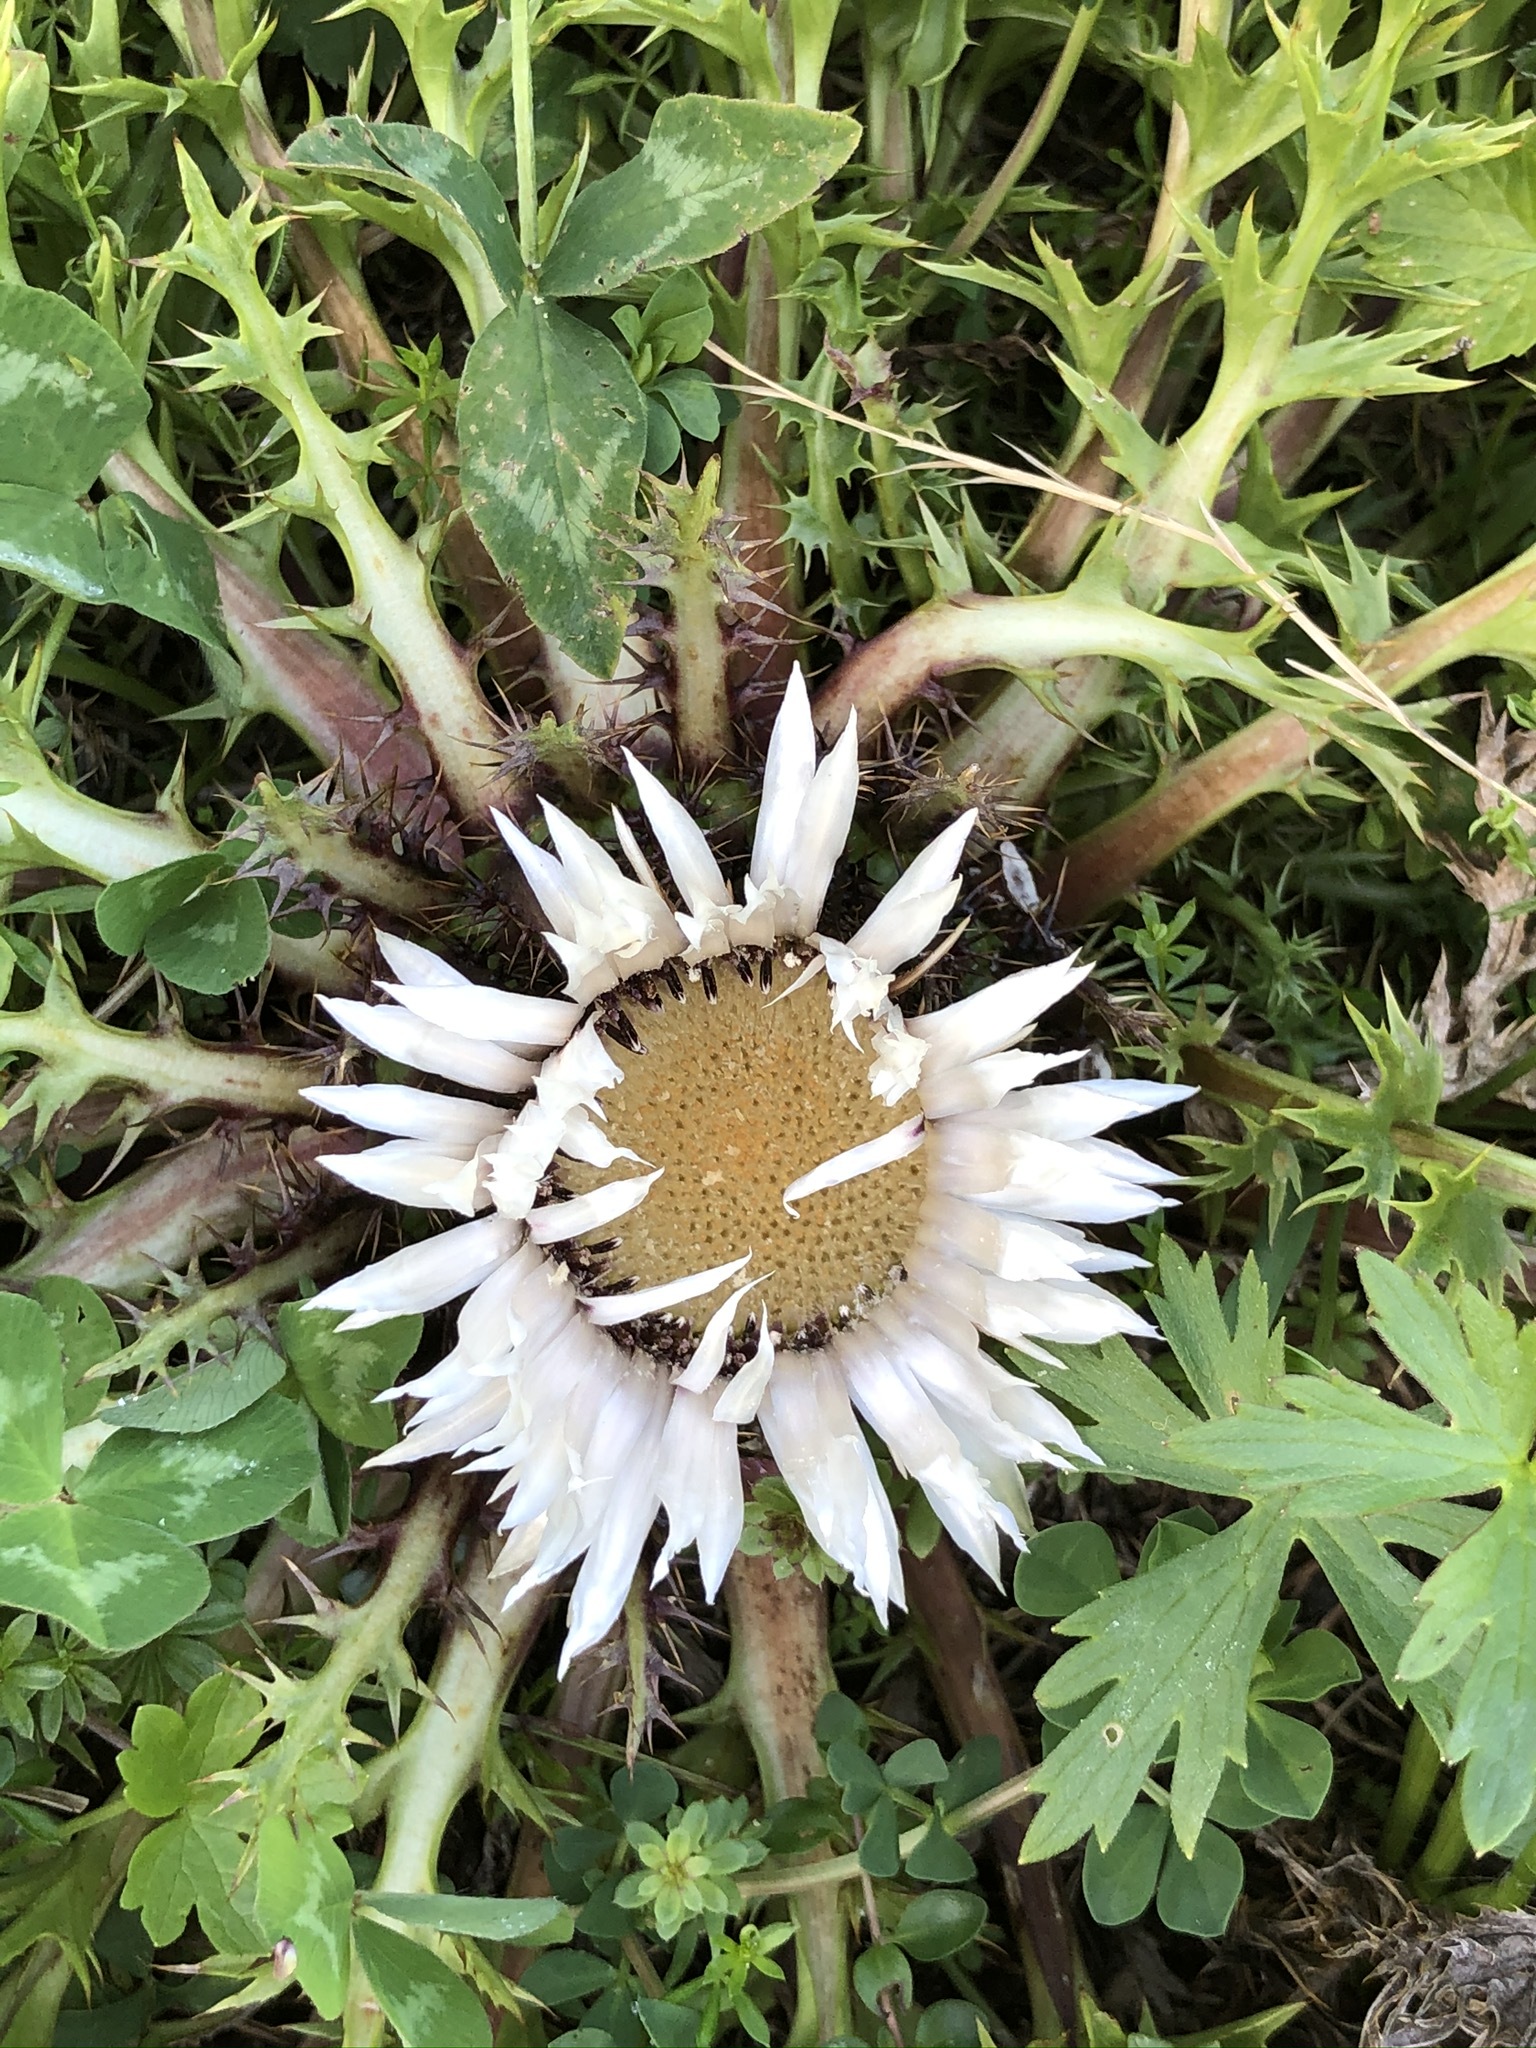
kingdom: Plantae
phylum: Tracheophyta
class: Magnoliopsida
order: Asterales
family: Asteraceae
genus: Carlina
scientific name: Carlina acaulis
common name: Stemless carline thistle
